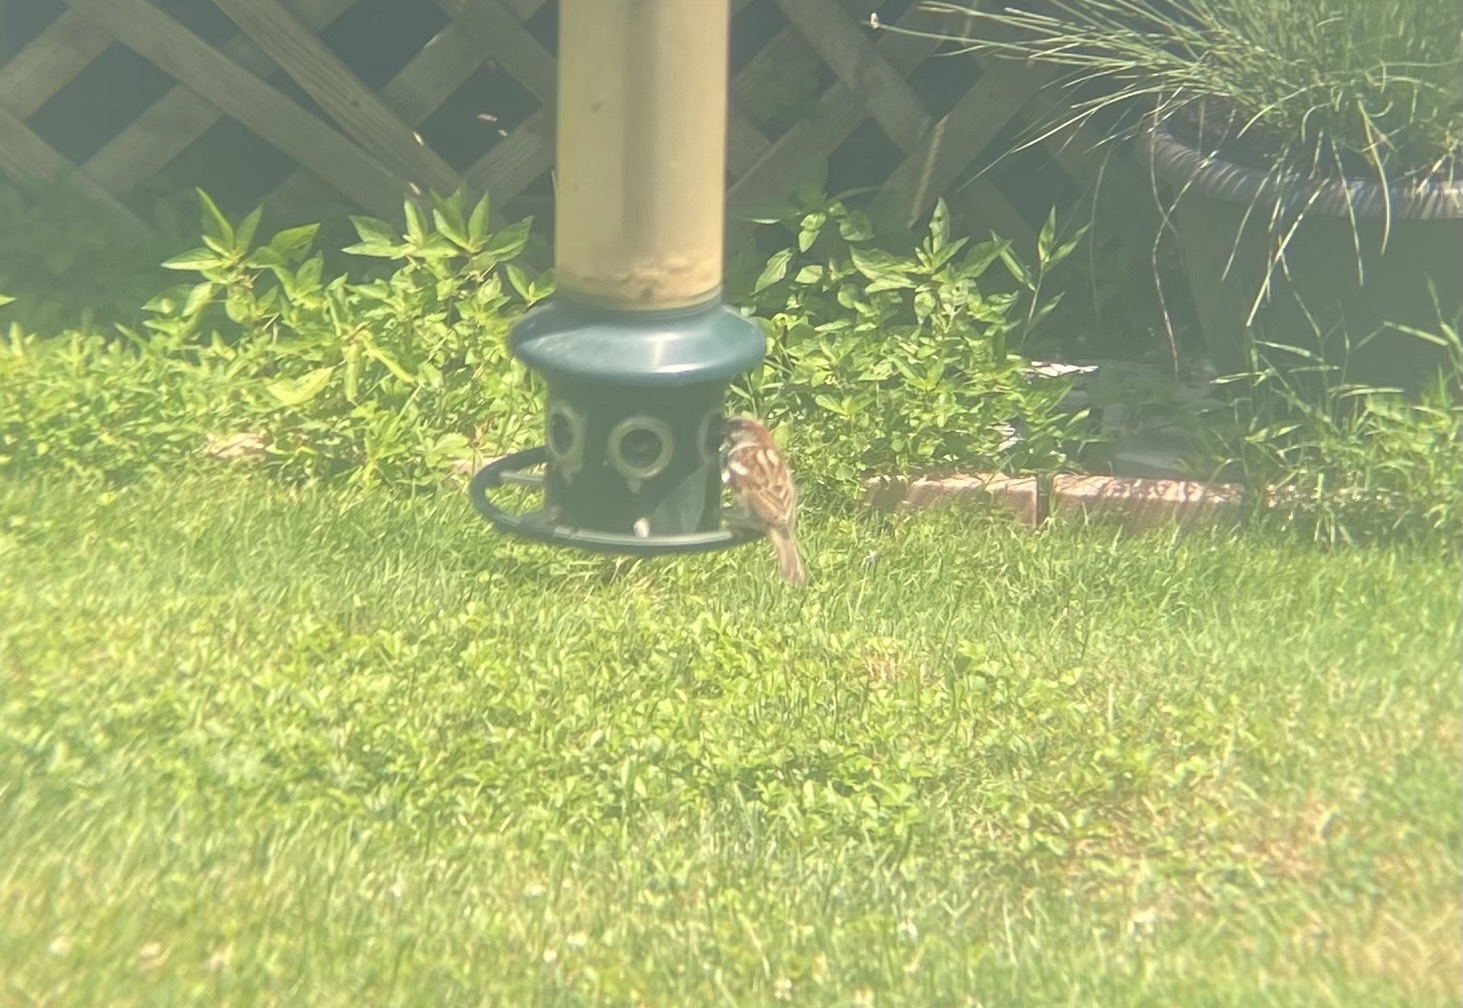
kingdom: Animalia
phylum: Chordata
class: Aves
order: Passeriformes
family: Passeridae
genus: Passer
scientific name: Passer domesticus
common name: House sparrow
